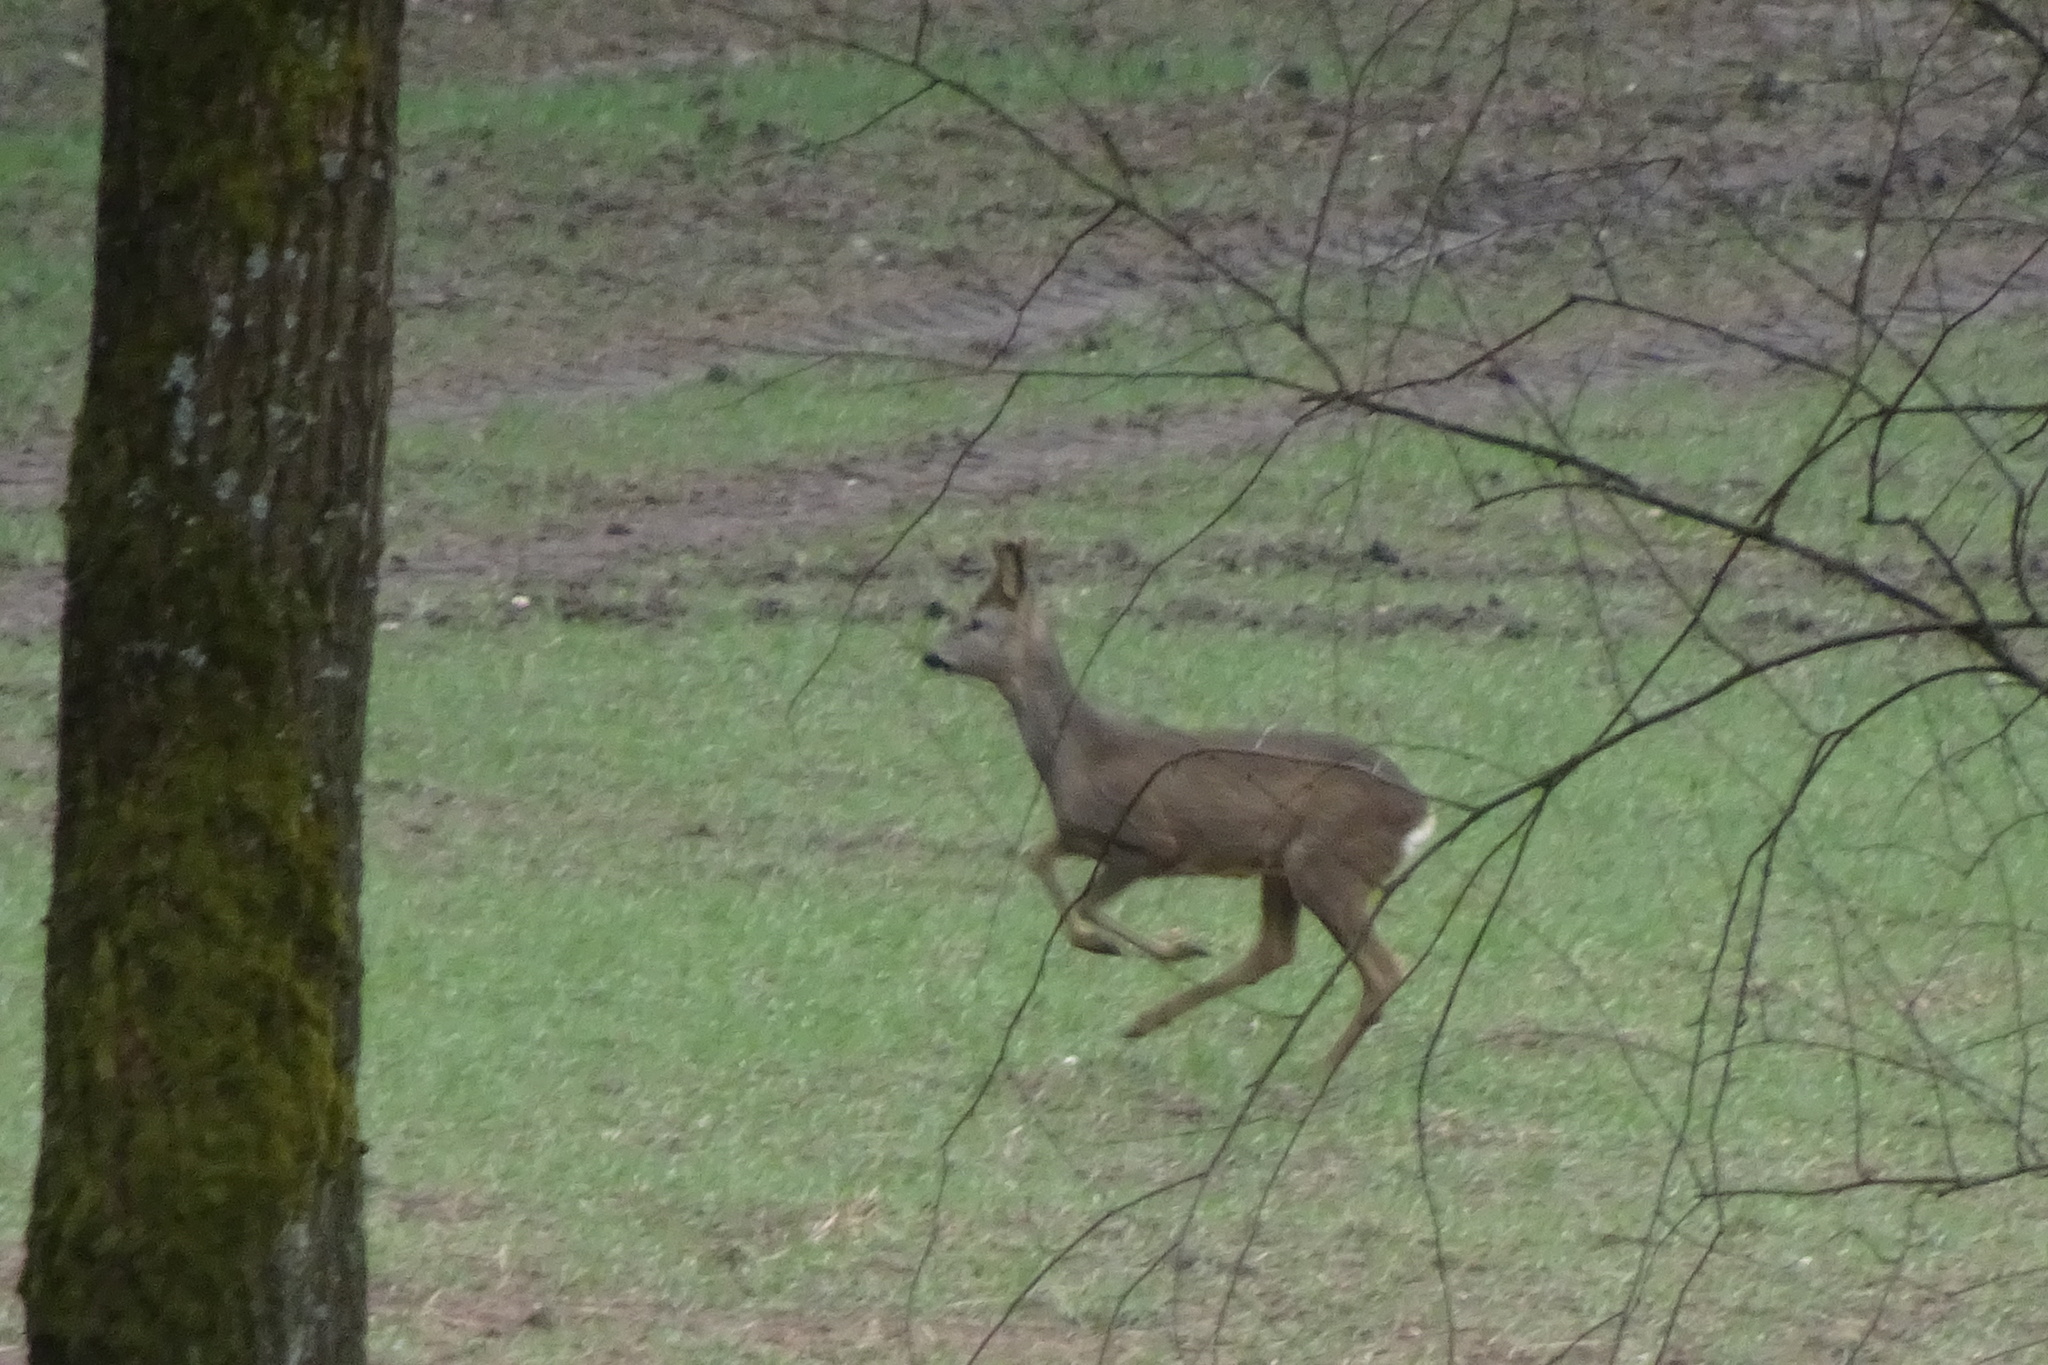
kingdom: Animalia
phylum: Chordata
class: Mammalia
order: Artiodactyla
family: Cervidae
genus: Capreolus
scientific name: Capreolus capreolus
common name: Western roe deer
